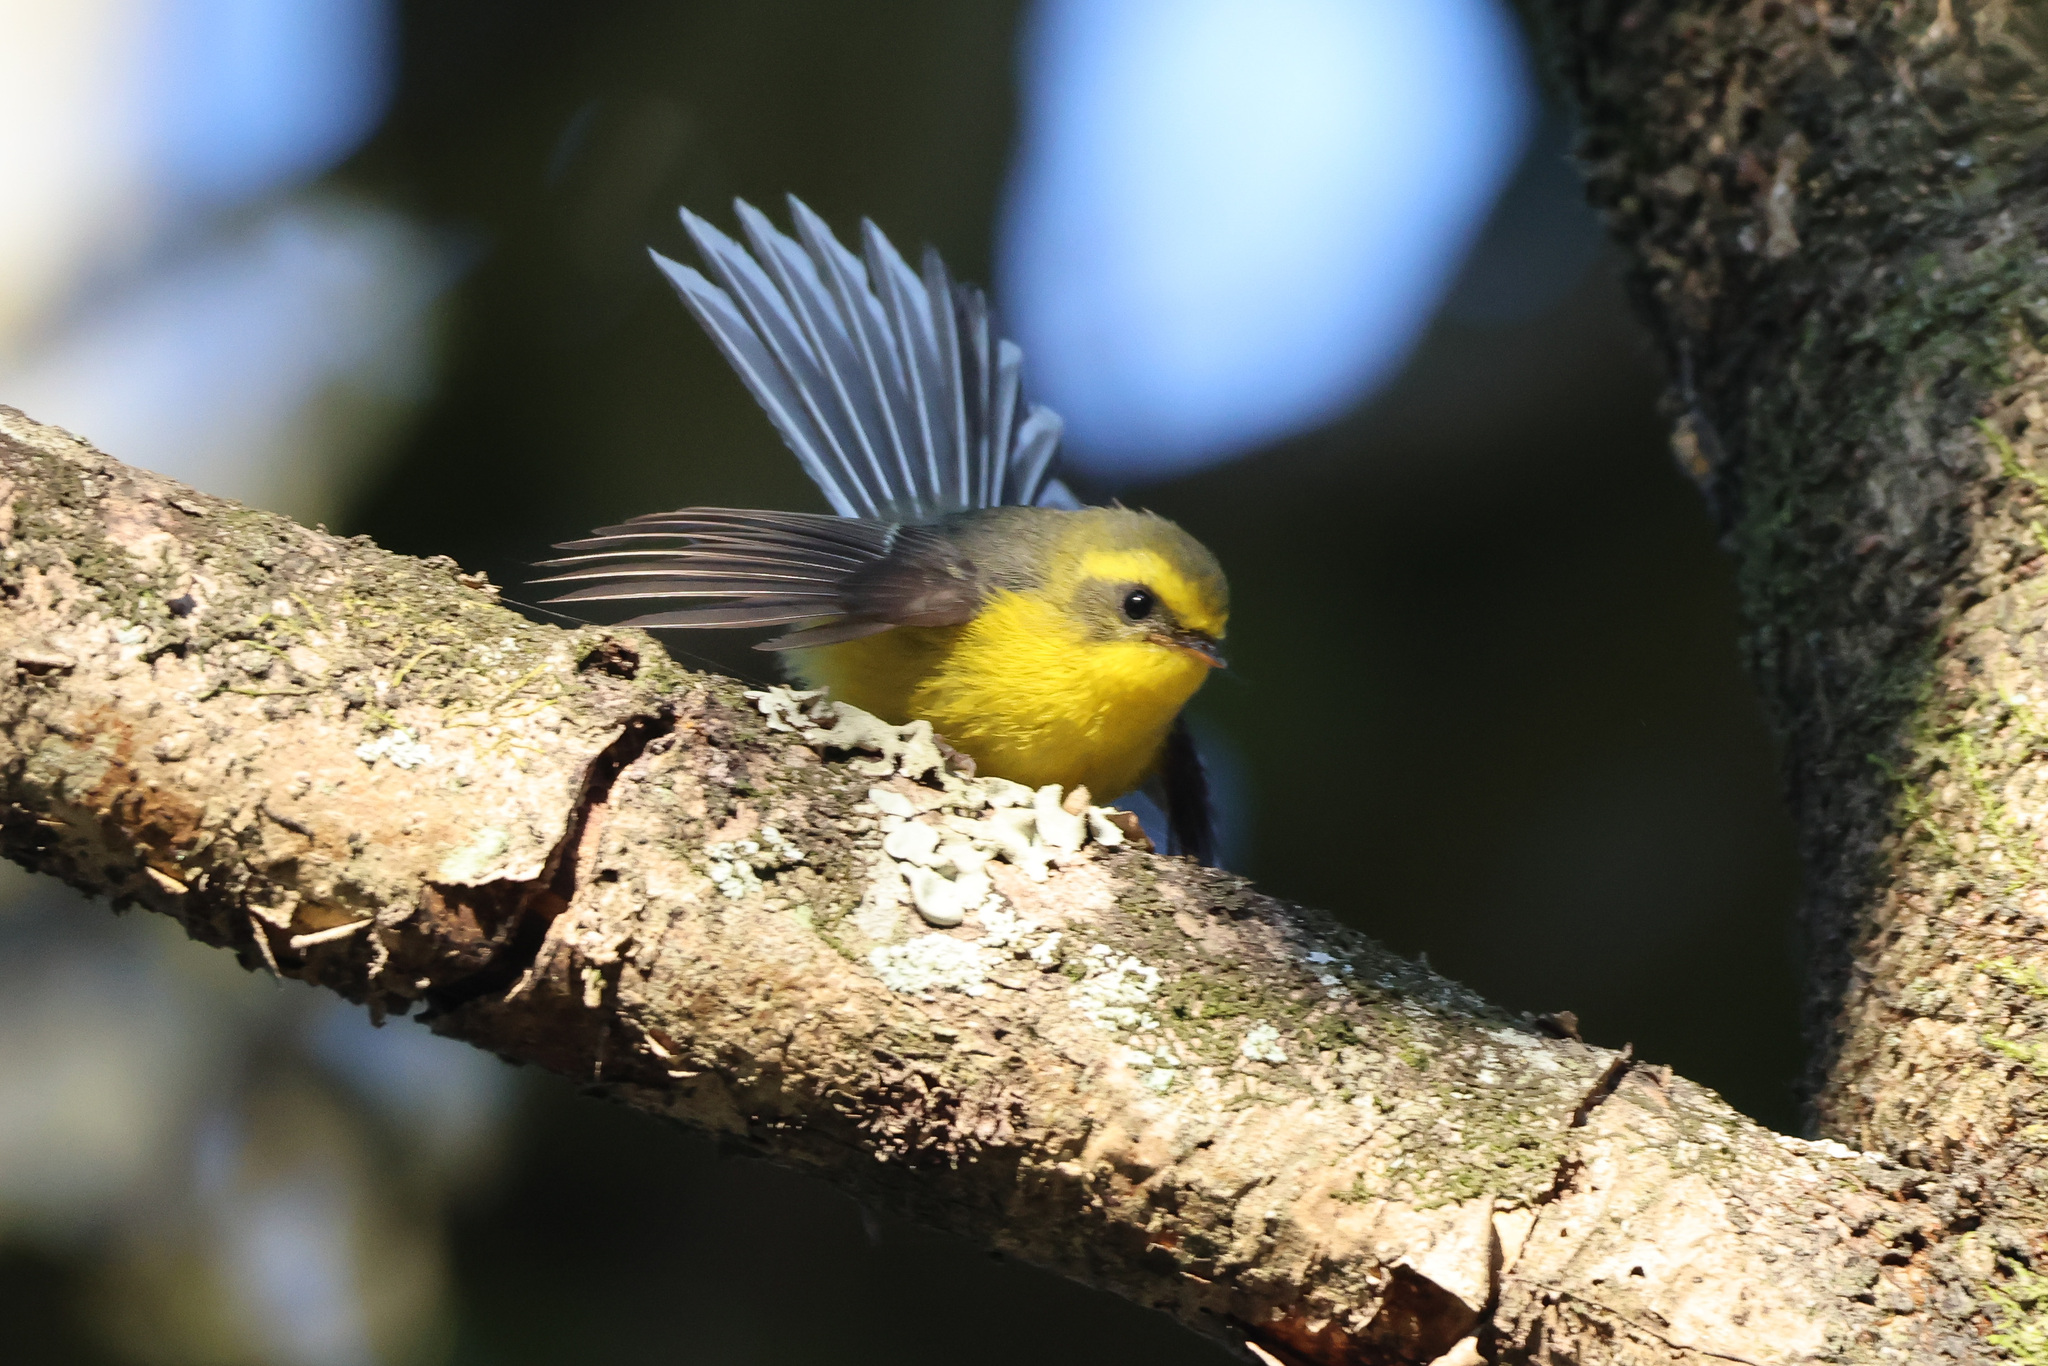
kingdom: Animalia
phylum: Chordata
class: Aves
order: Passeriformes
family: Stenostiridae
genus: Chelidorhynx
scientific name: Chelidorhynx hypoxantha
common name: Yellow-bellied fantail
